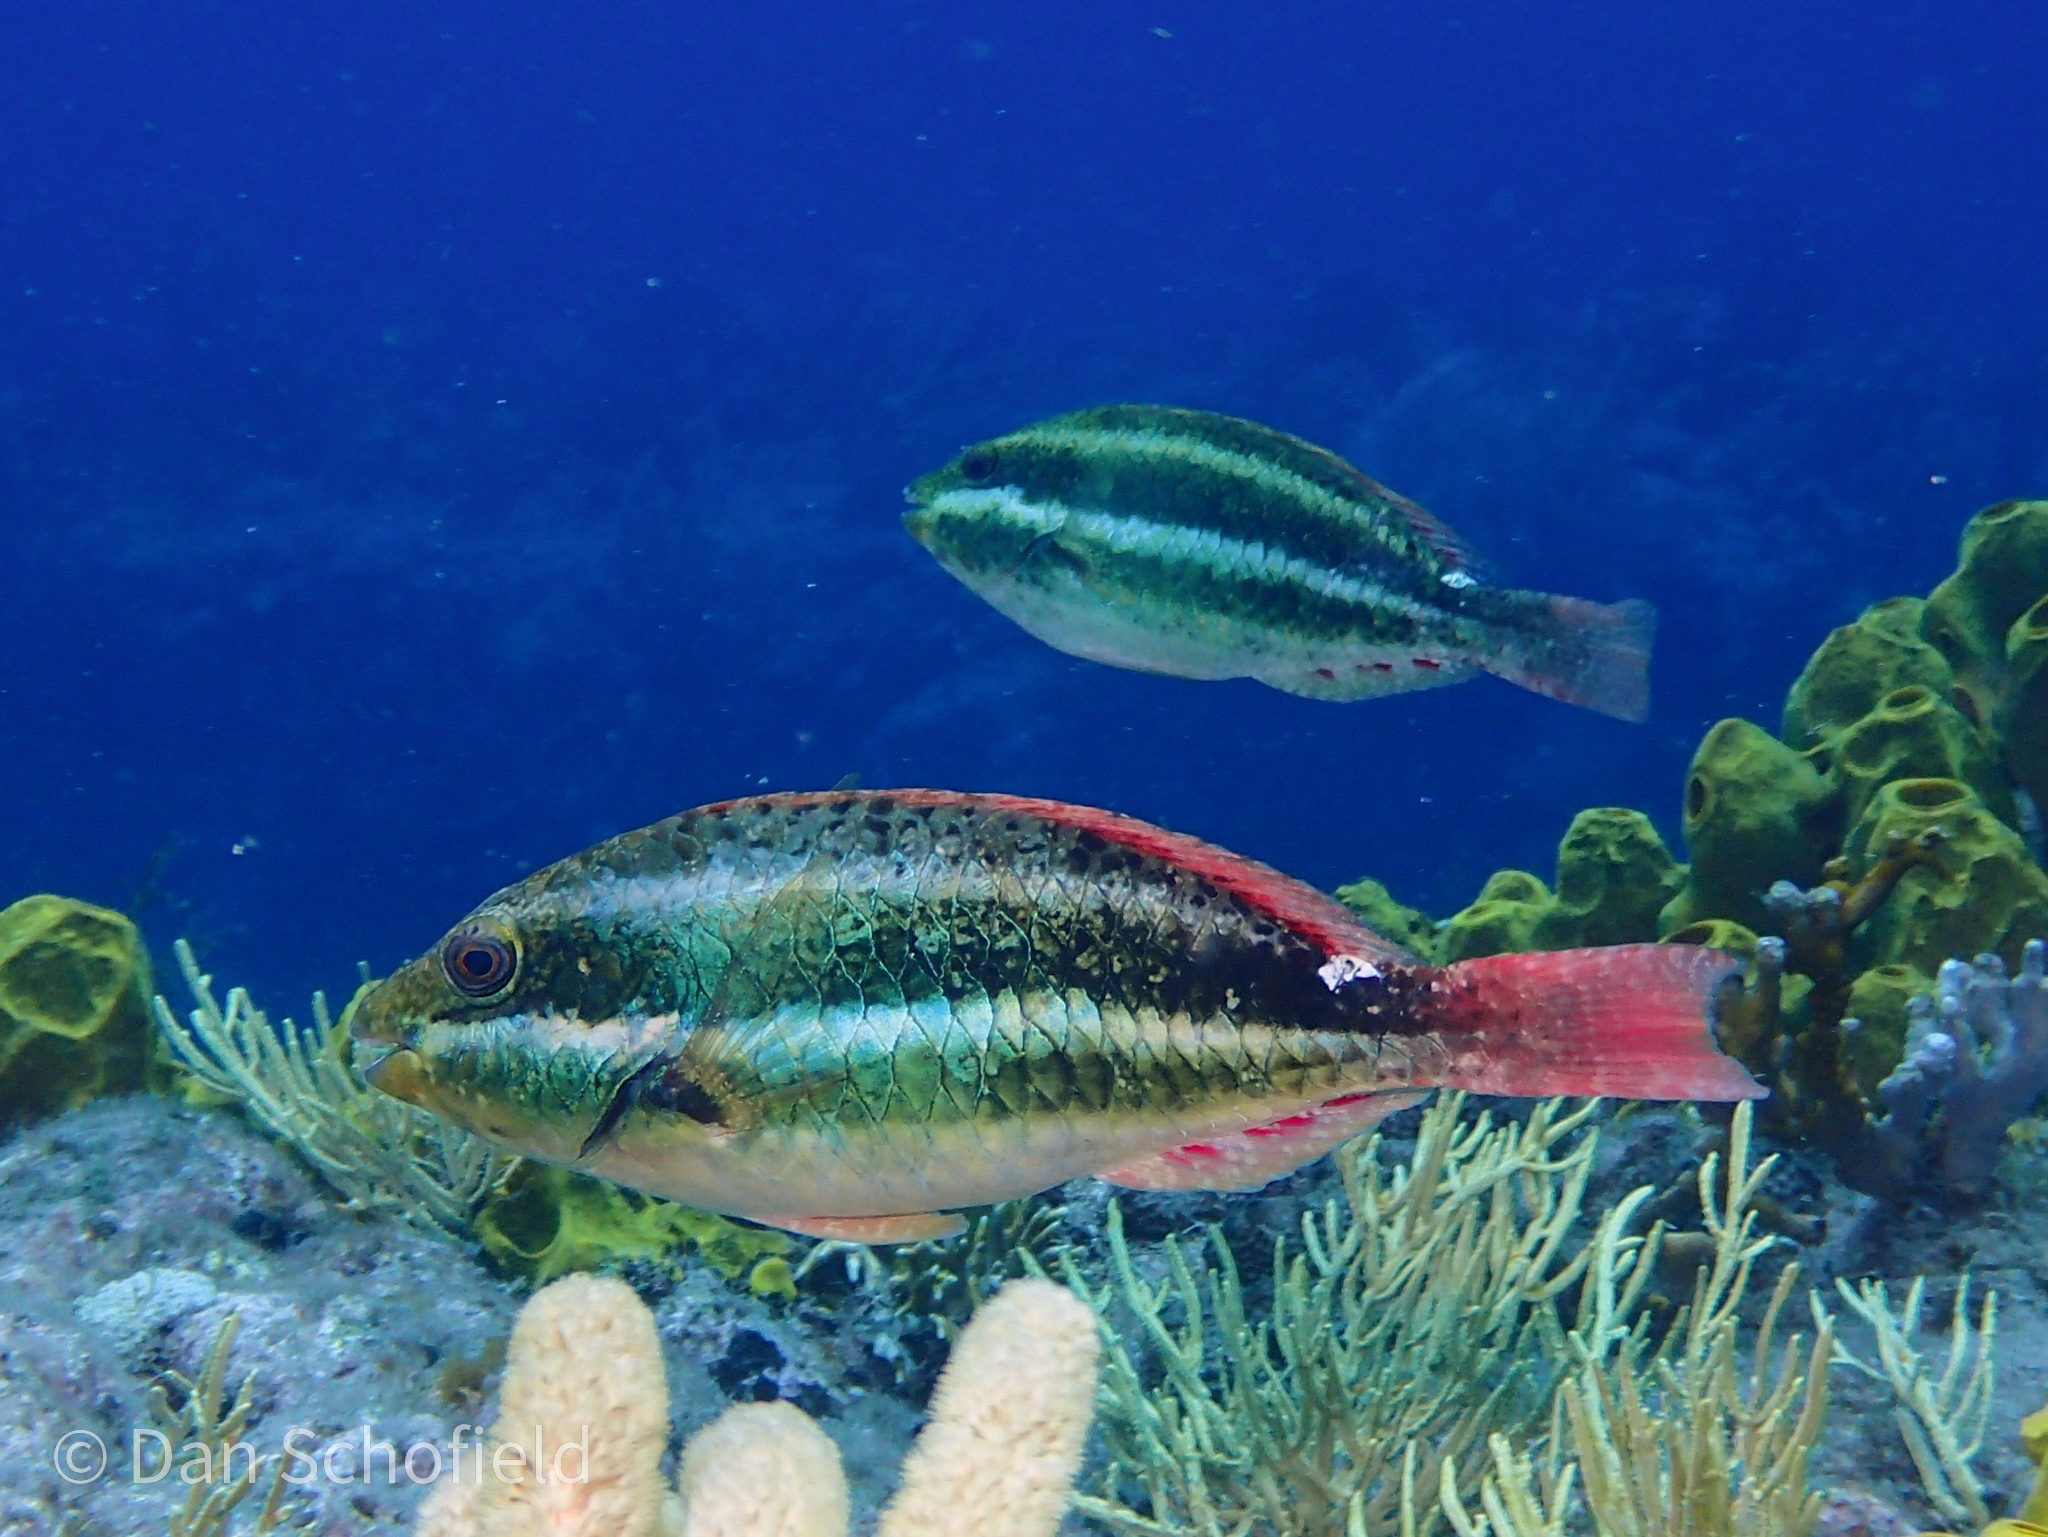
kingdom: Animalia
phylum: Chordata
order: Perciformes
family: Scaridae
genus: Sparisoma
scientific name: Sparisoma aurofrenatum
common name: Redband parrotfish
